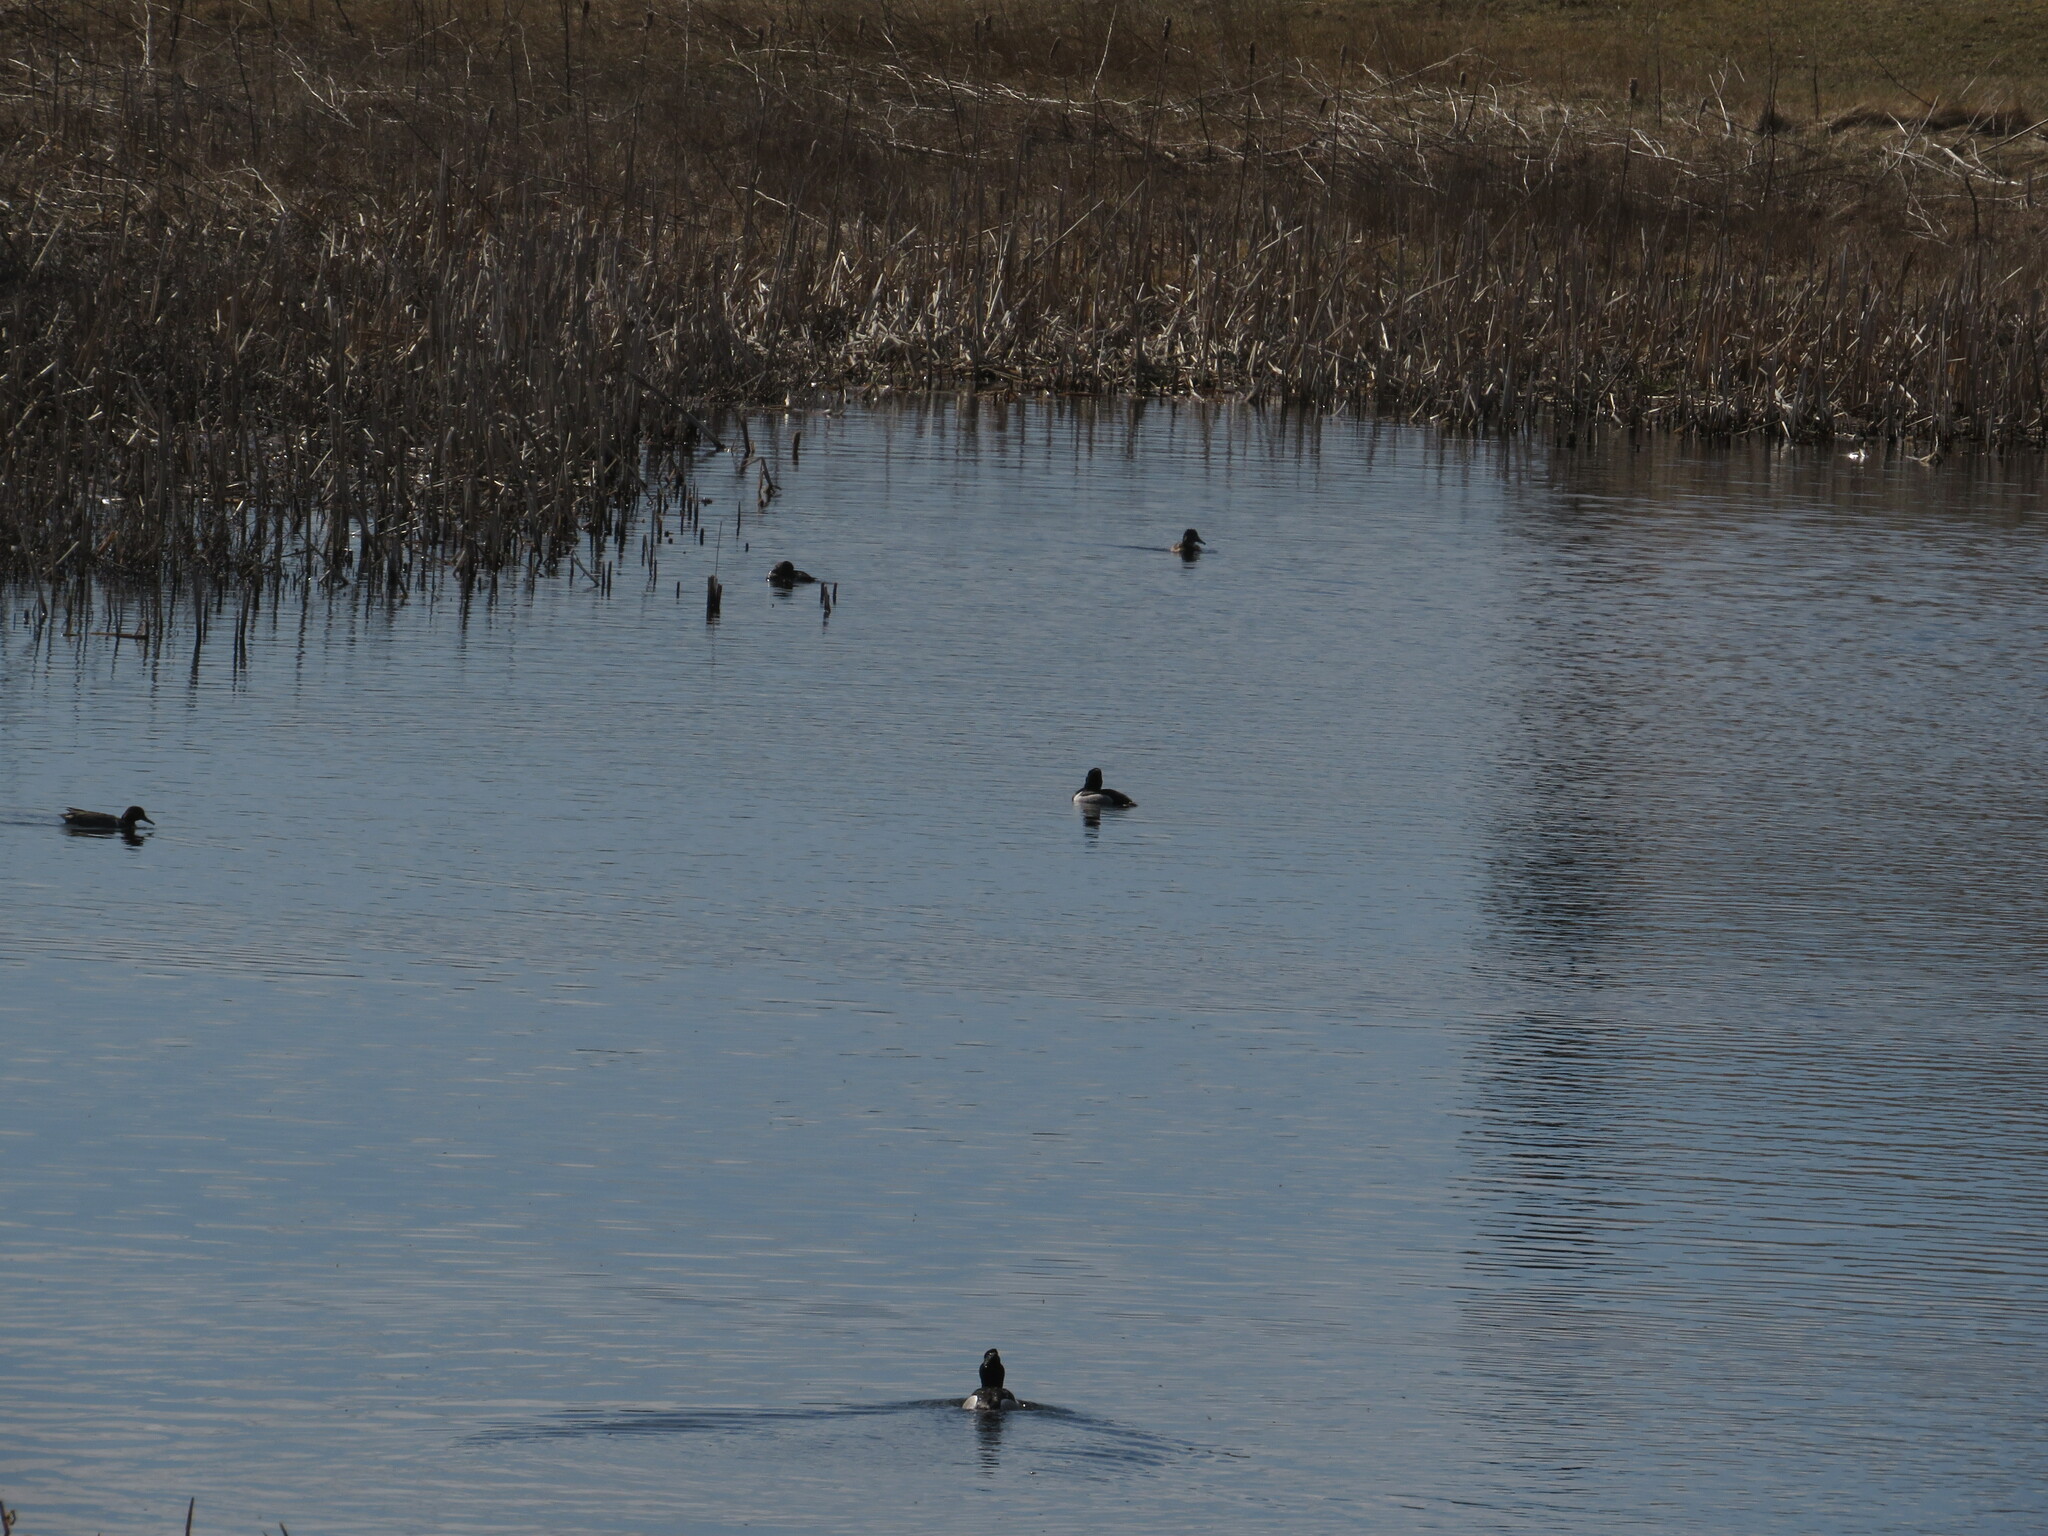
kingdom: Animalia
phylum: Chordata
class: Aves
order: Anseriformes
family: Anatidae
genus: Aythya
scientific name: Aythya collaris
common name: Ring-necked duck
